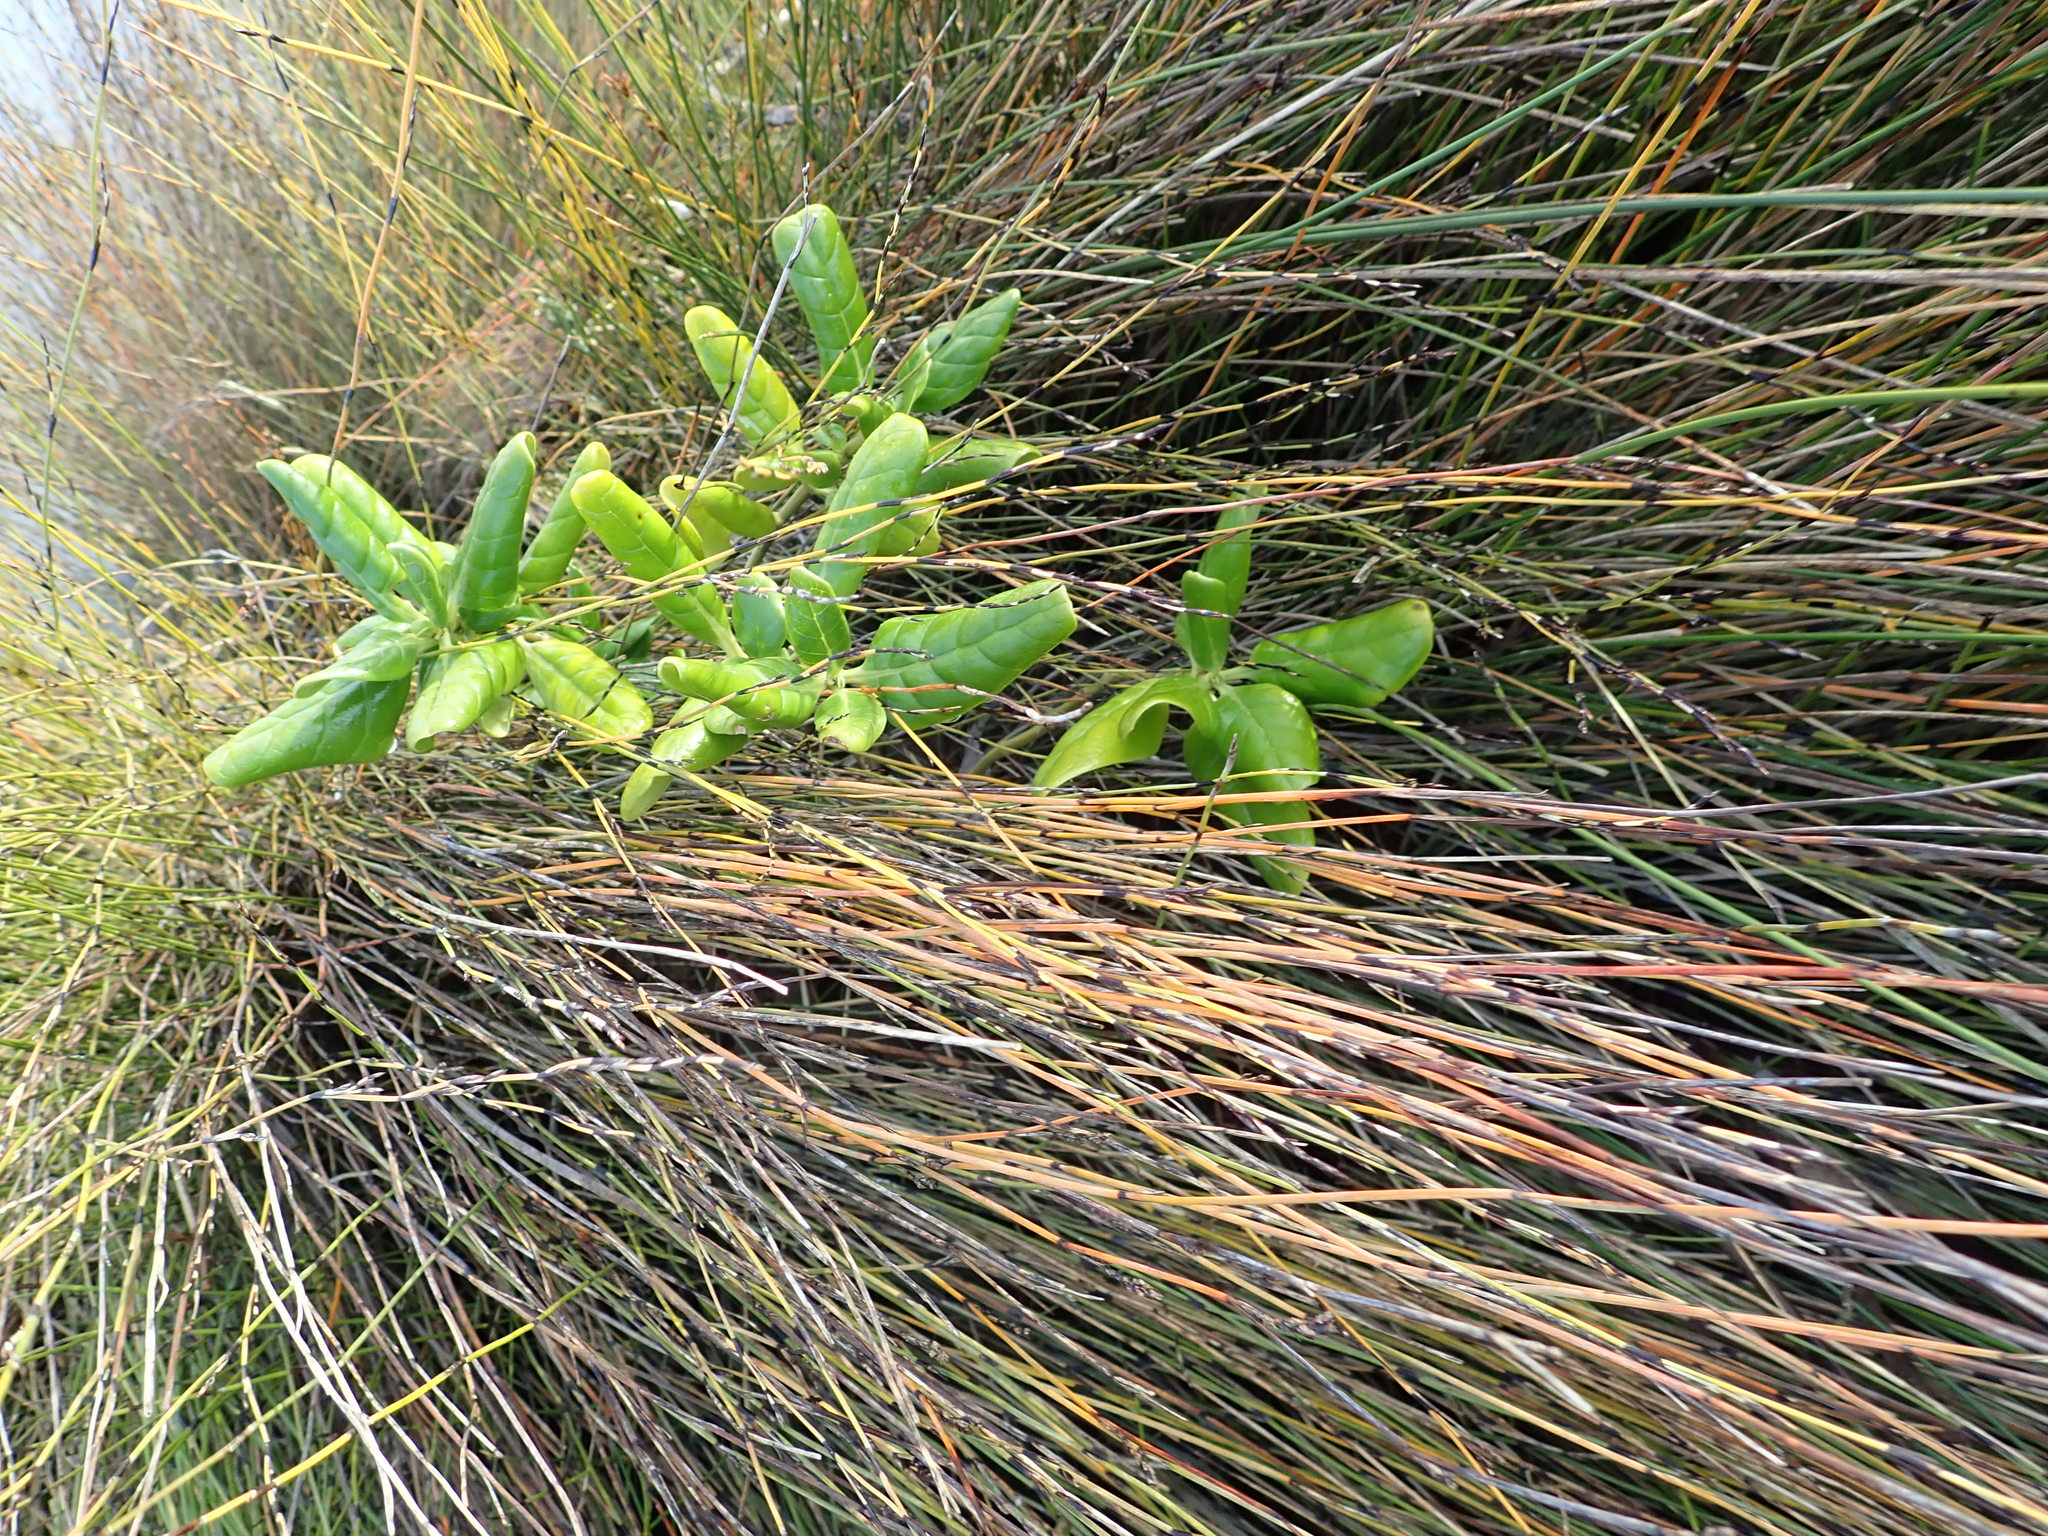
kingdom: Plantae
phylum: Tracheophyta
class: Magnoliopsida
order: Gentianales
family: Rubiaceae
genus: Coprosma
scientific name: Coprosma repens
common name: Tree bedstraw
